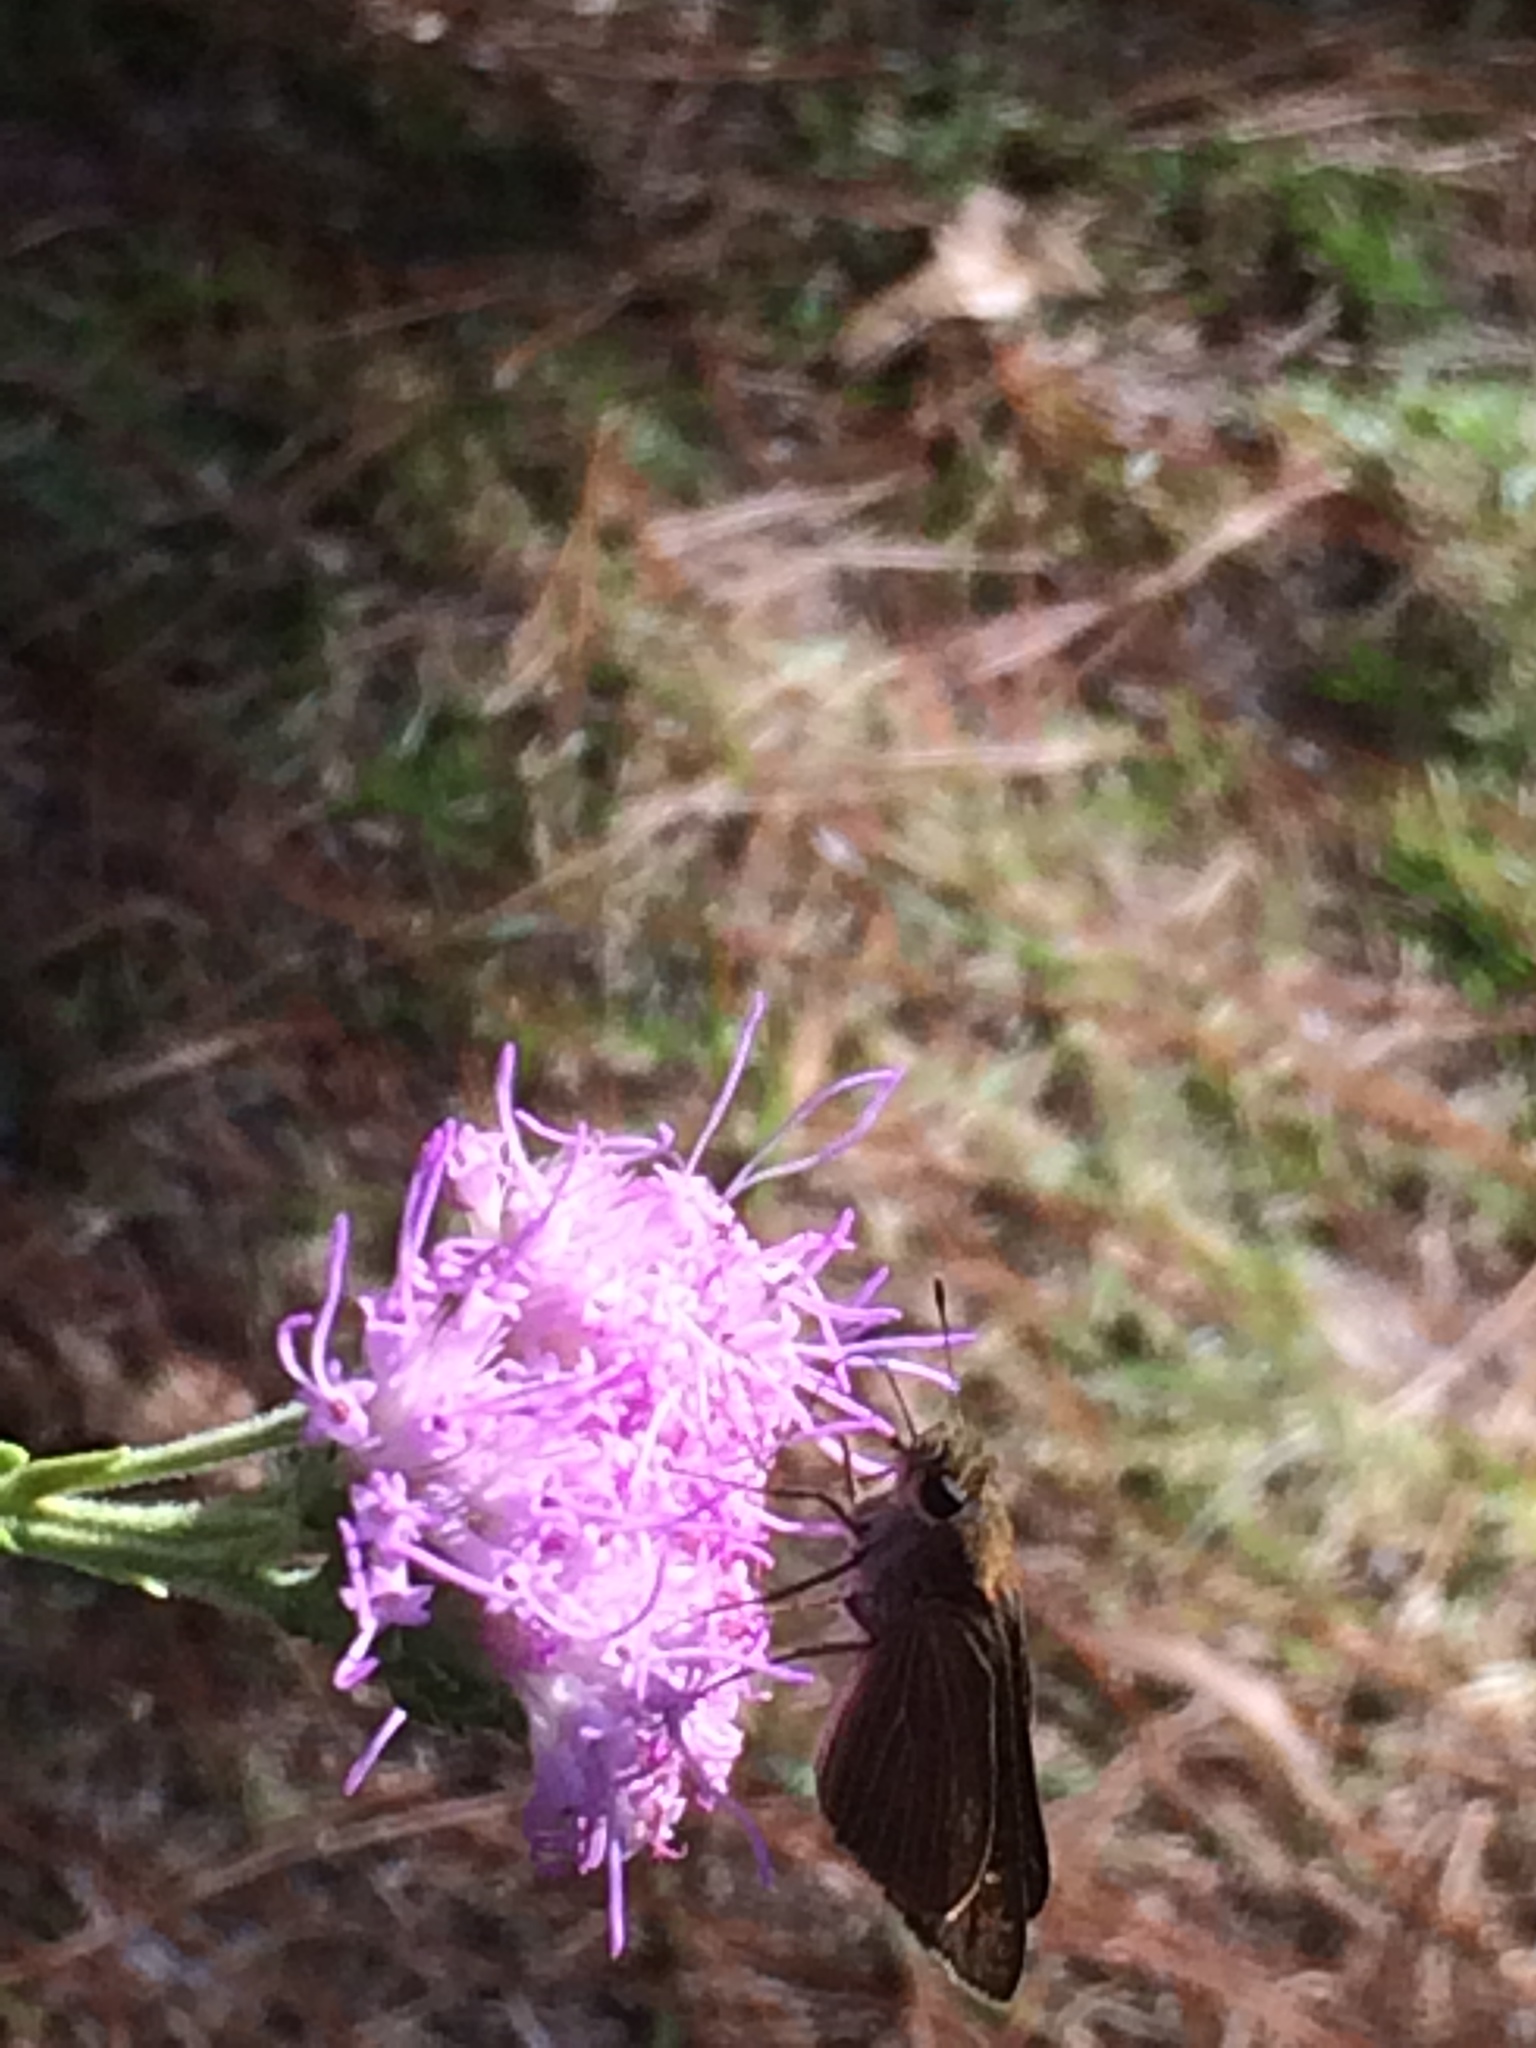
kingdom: Animalia
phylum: Arthropoda
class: Insecta
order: Lepidoptera
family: Hesperiidae
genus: Panoquina
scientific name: Panoquina ocola
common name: Ocola skipper
